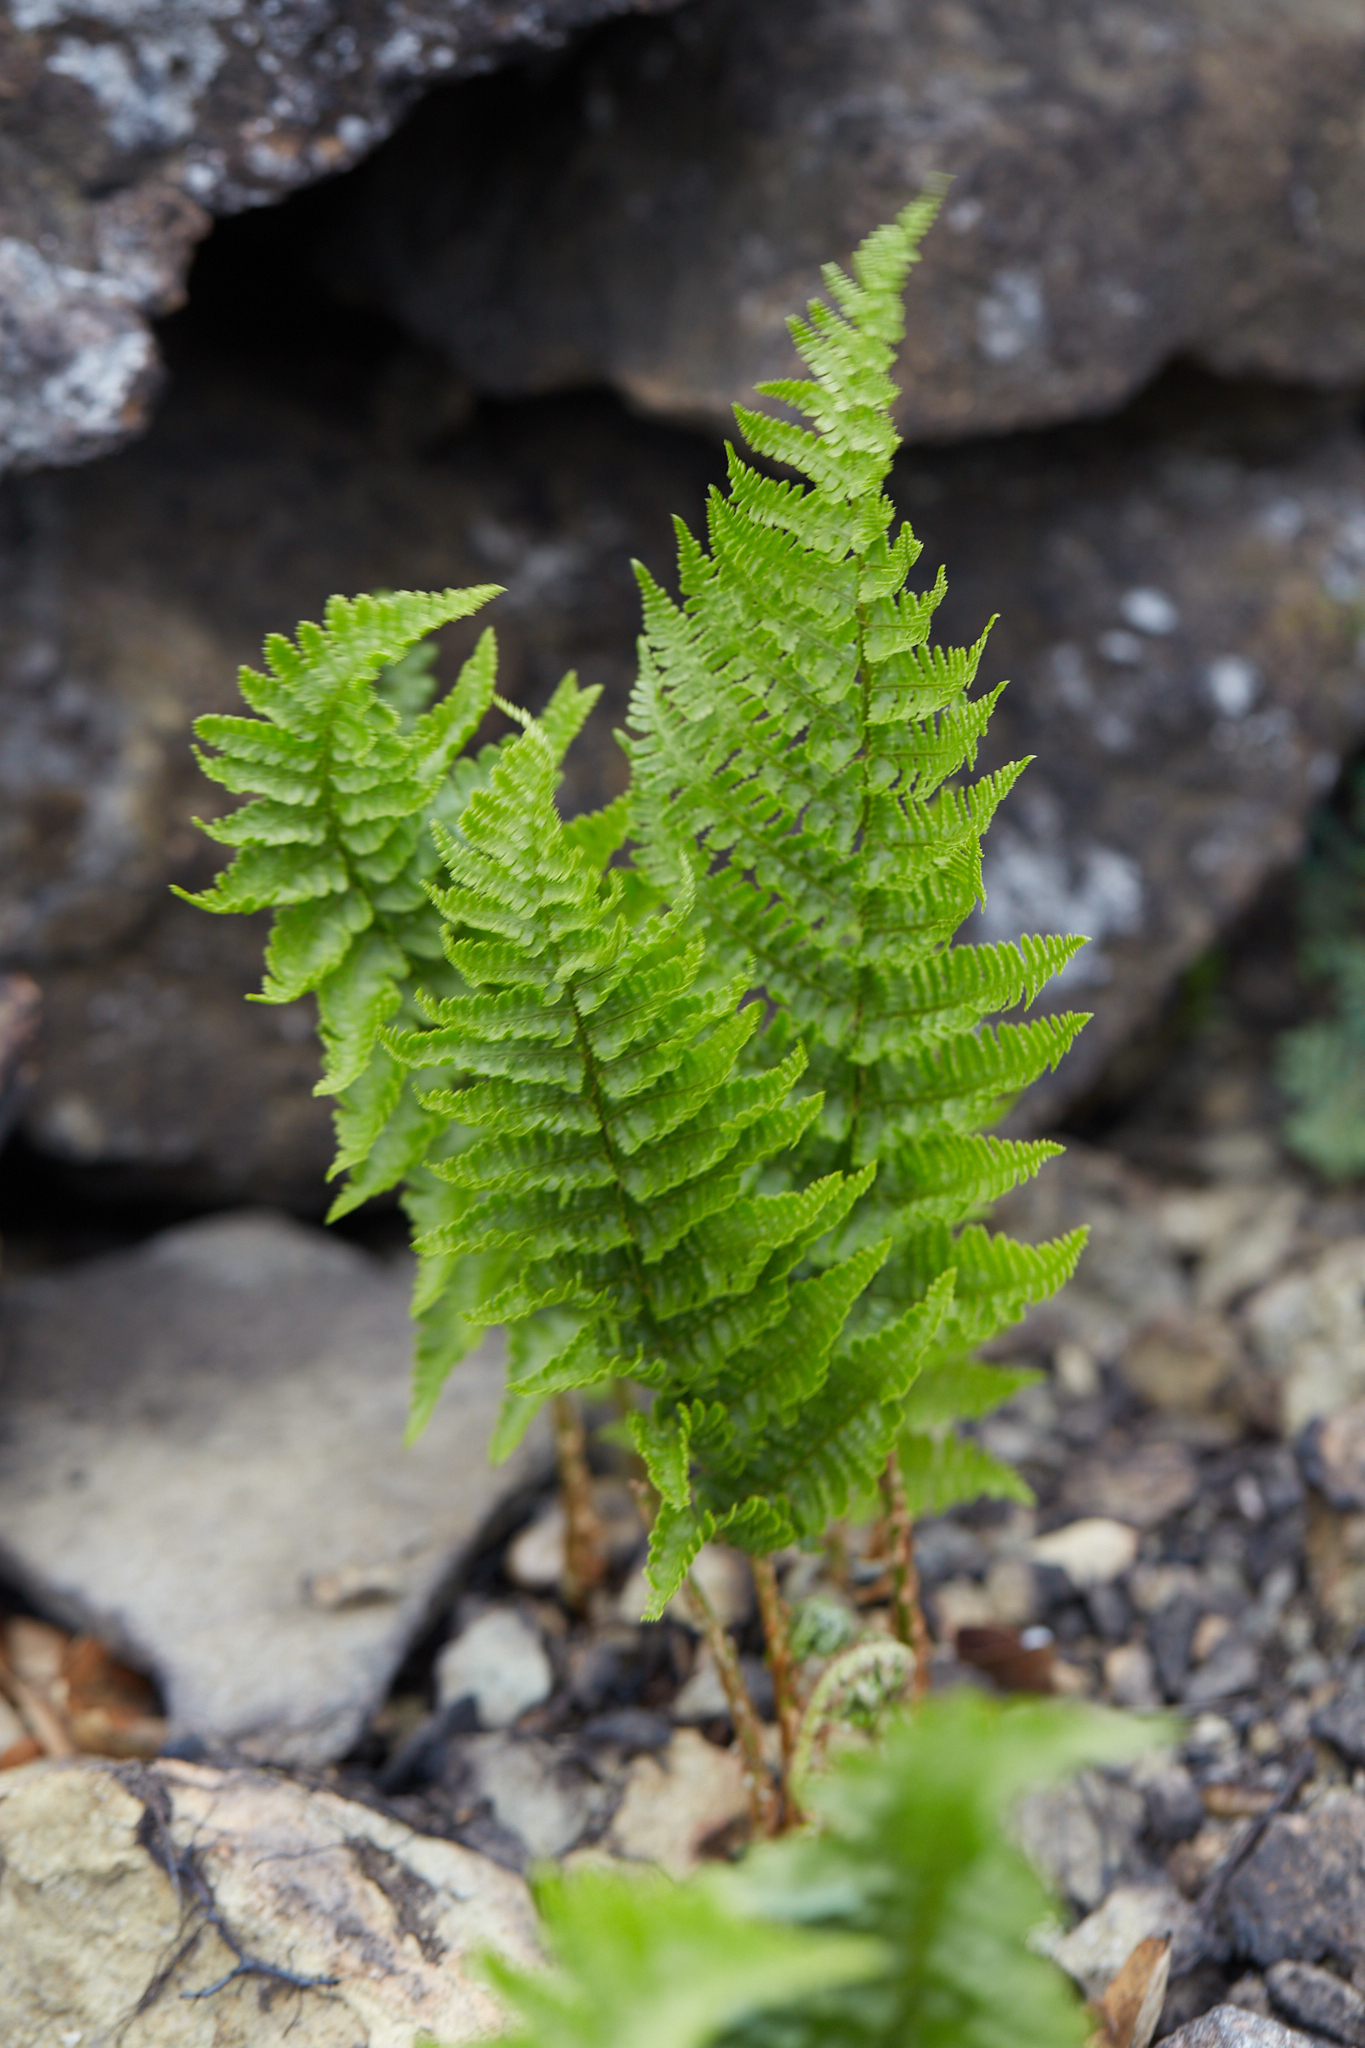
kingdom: Plantae
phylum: Tracheophyta
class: Polypodiopsida
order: Polypodiales
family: Dryopteridaceae
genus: Dryopteris
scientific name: Dryopteris arguta
